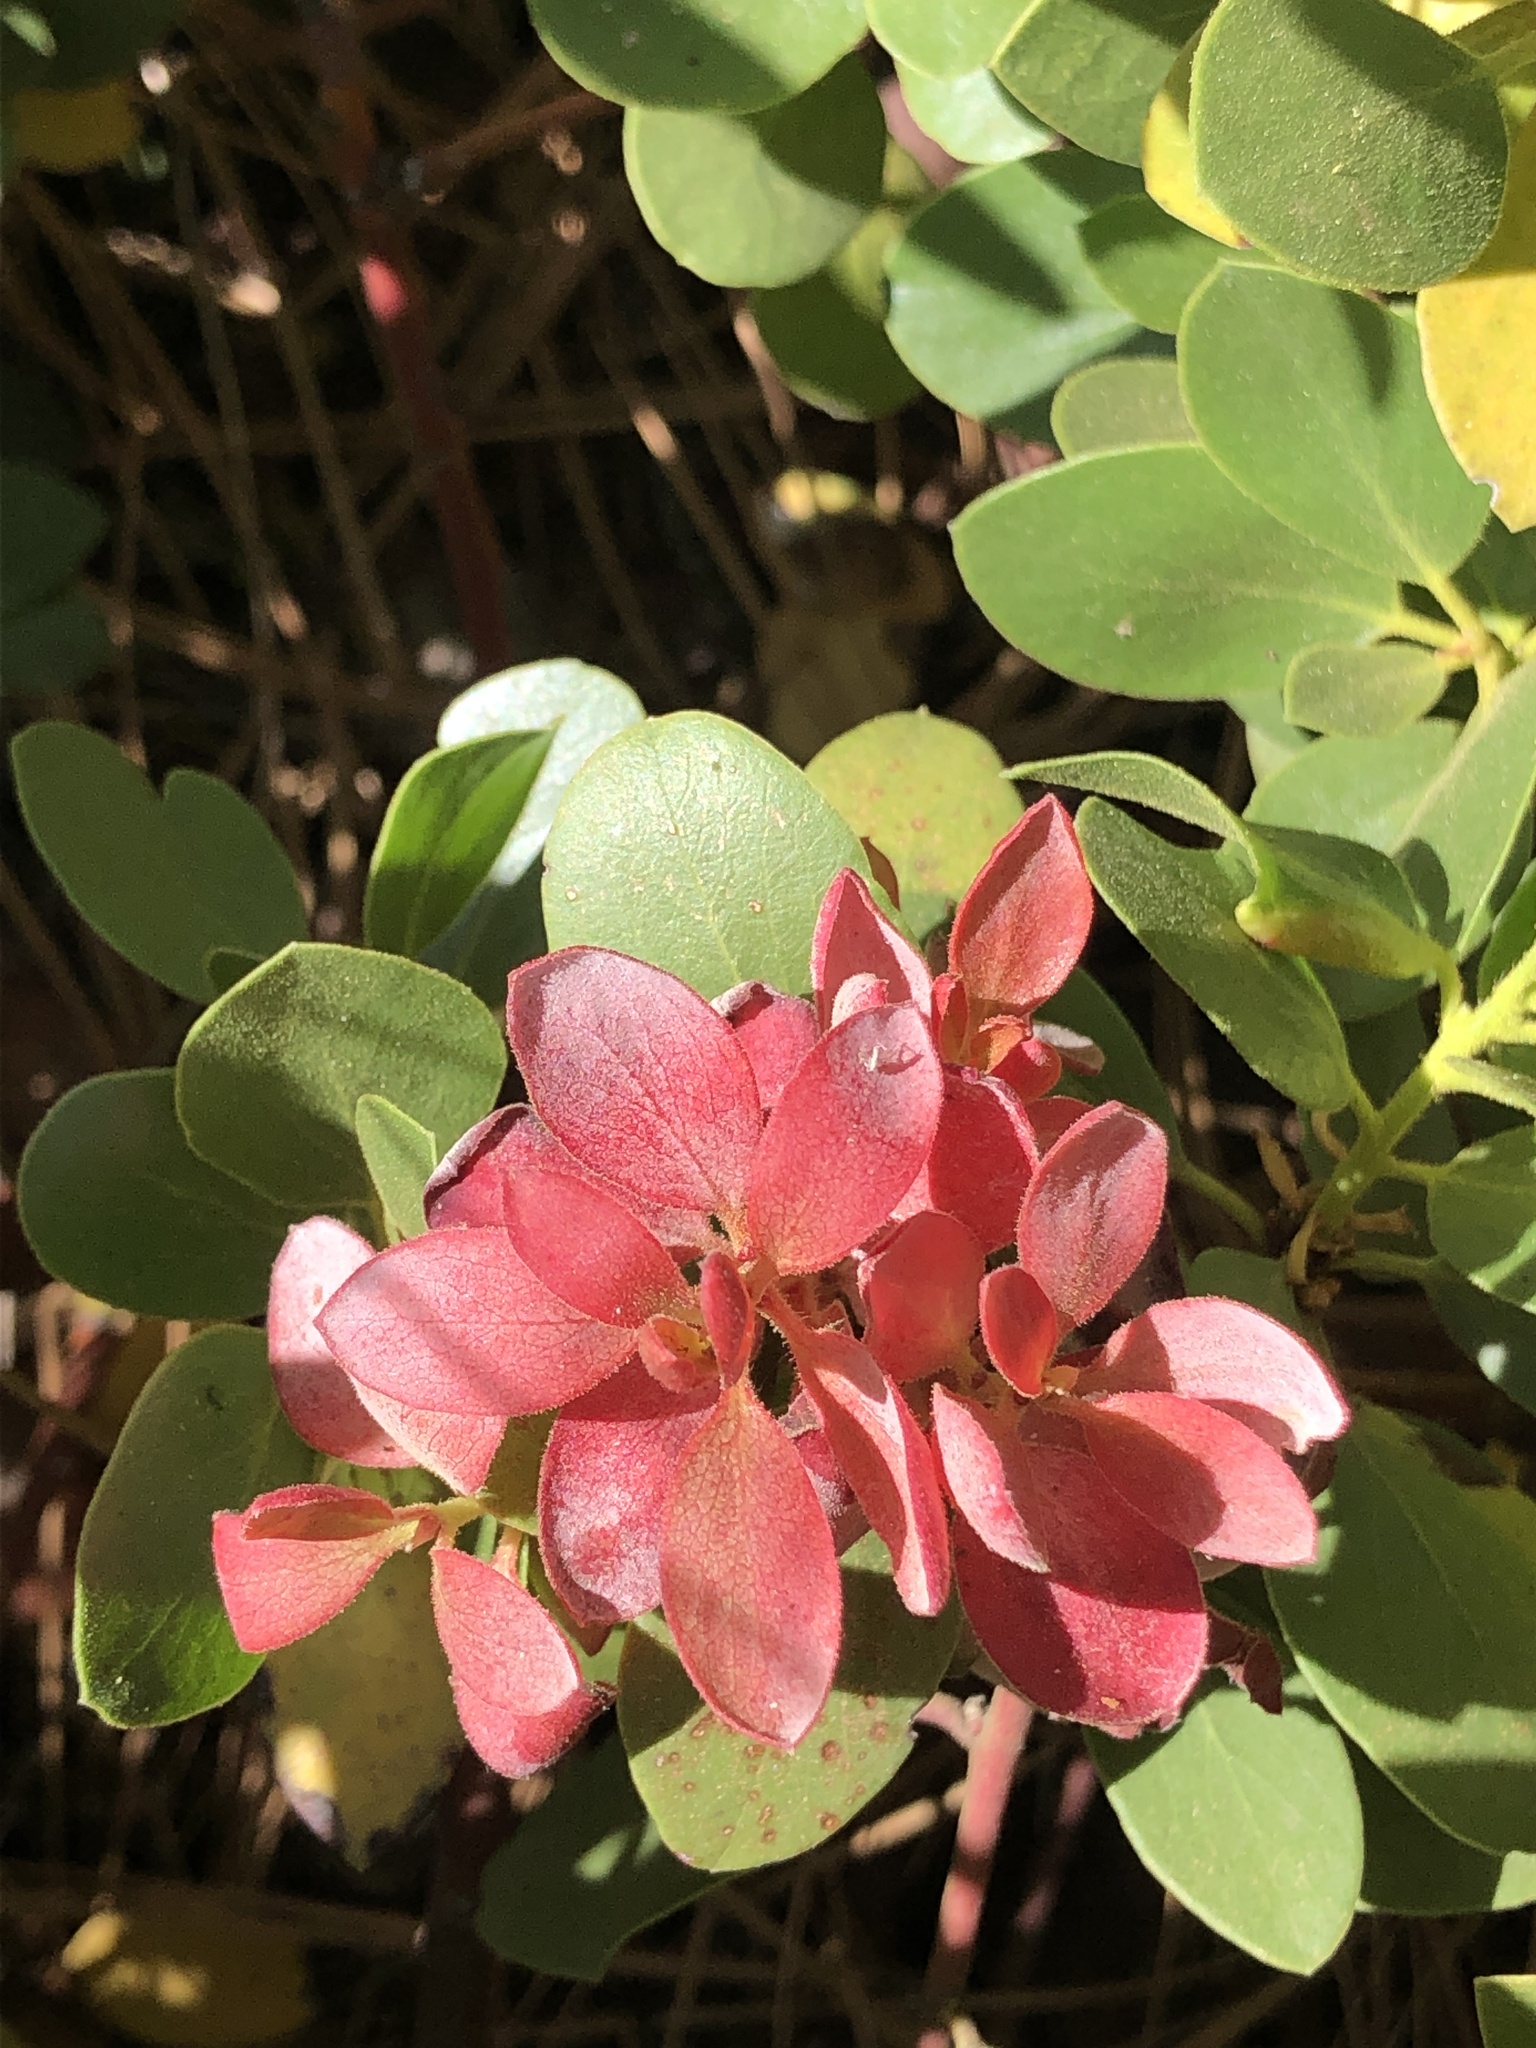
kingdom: Fungi
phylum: Basidiomycota
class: Exobasidiomycetes
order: Exobasidiales
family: Exobasidiaceae
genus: Exobasidium
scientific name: Exobasidium
